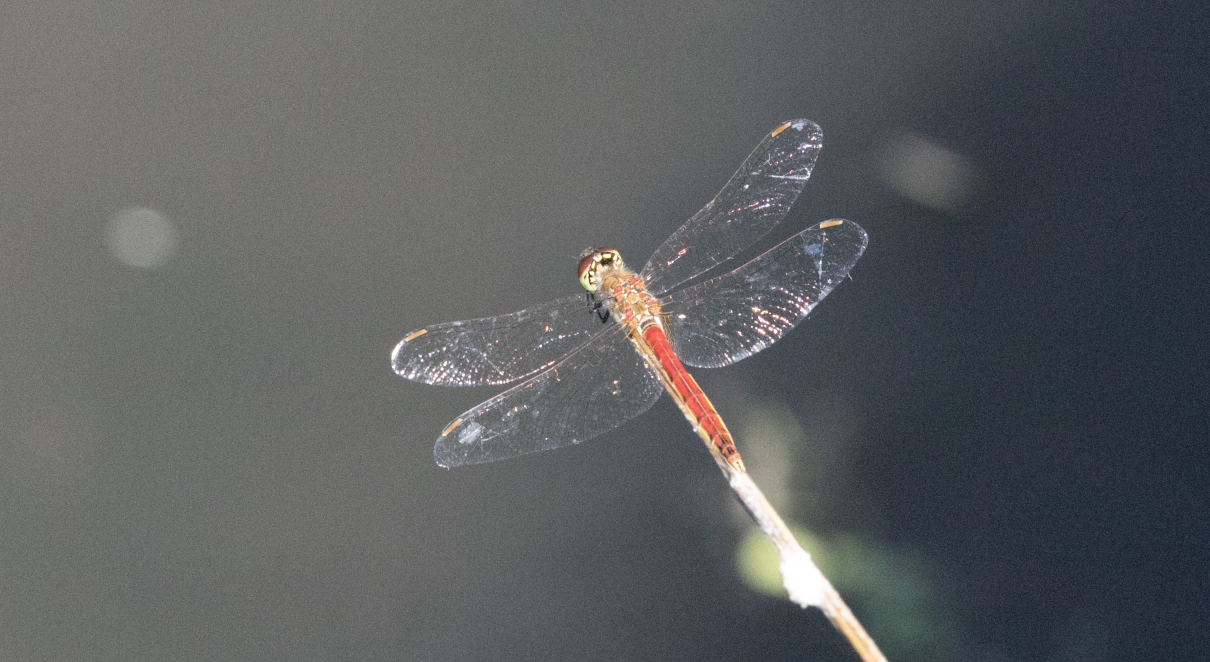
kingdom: Animalia
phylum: Arthropoda
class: Insecta
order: Odonata
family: Libellulidae
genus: Sympetrum
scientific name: Sympetrum depressiusculum
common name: Spotted darter
